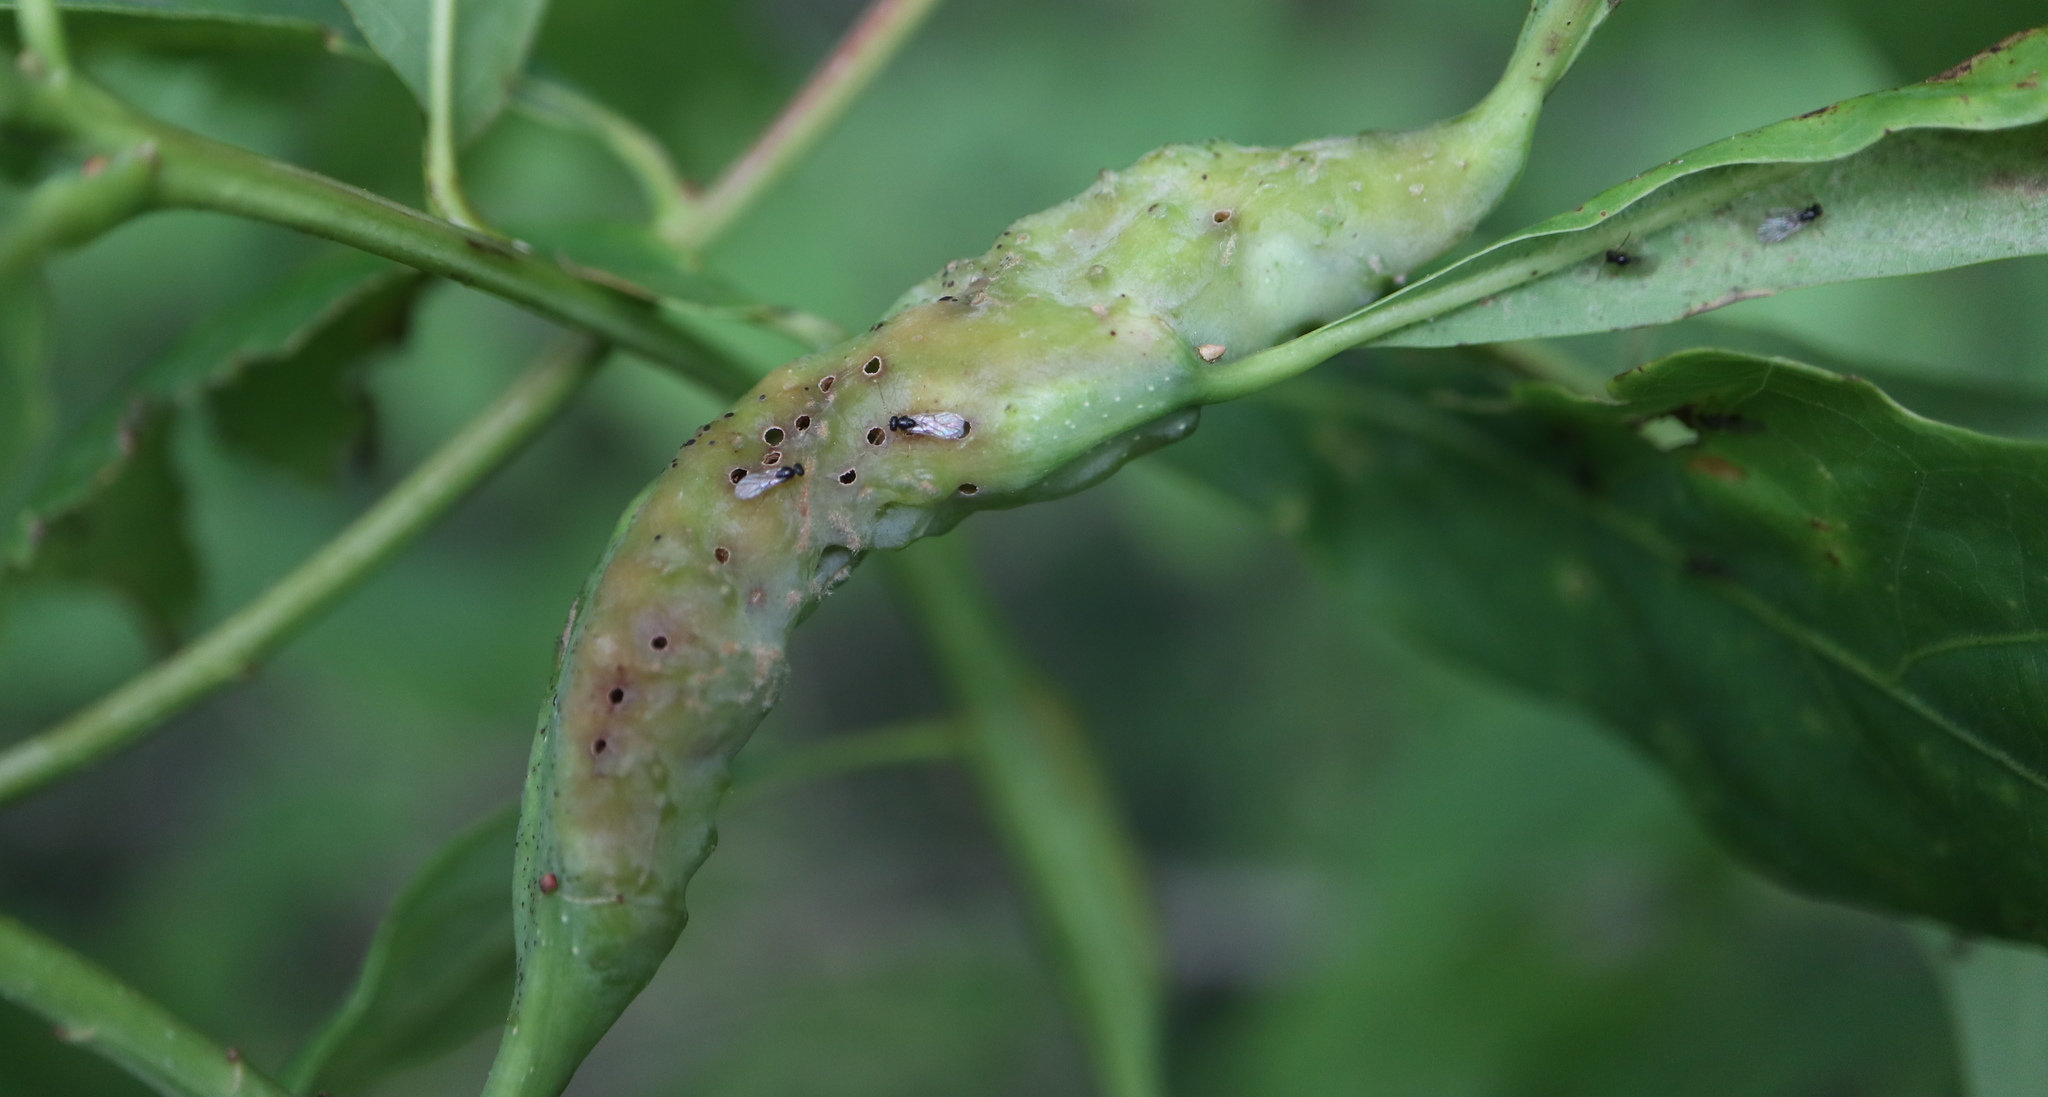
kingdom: Animalia
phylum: Arthropoda
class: Insecta
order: Hymenoptera
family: Cynipidae
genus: Neuroterus
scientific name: Neuroterus quercusbaccarum
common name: Common spangle gall
